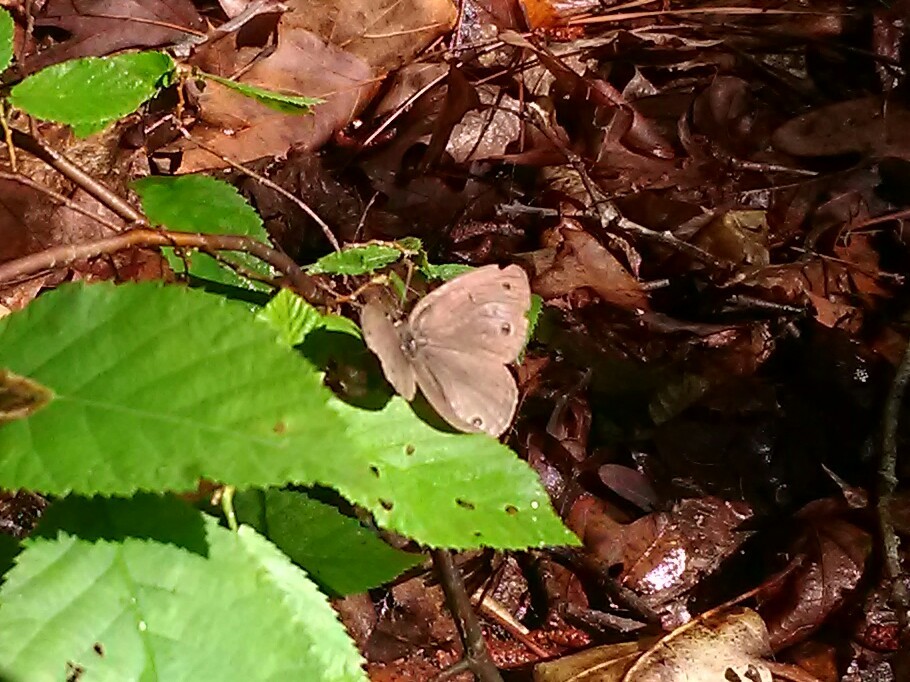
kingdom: Animalia
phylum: Arthropoda
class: Insecta
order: Lepidoptera
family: Nymphalidae
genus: Euptychia
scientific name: Euptychia cymela
